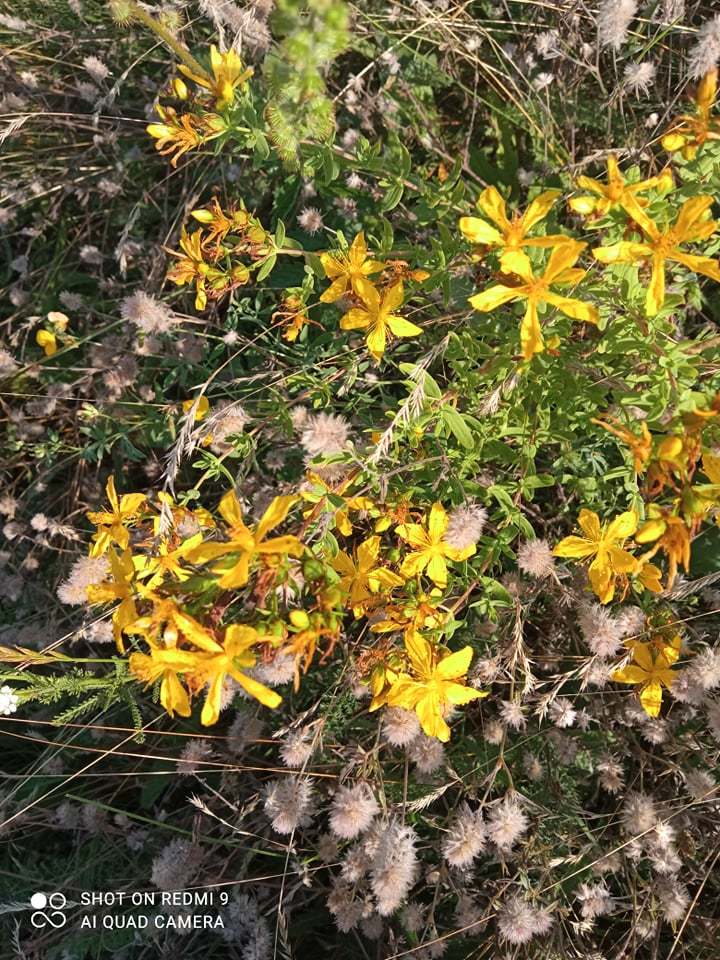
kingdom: Plantae
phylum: Tracheophyta
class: Magnoliopsida
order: Malpighiales
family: Hypericaceae
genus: Hypericum
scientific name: Hypericum perforatum
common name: Common st. johnswort
